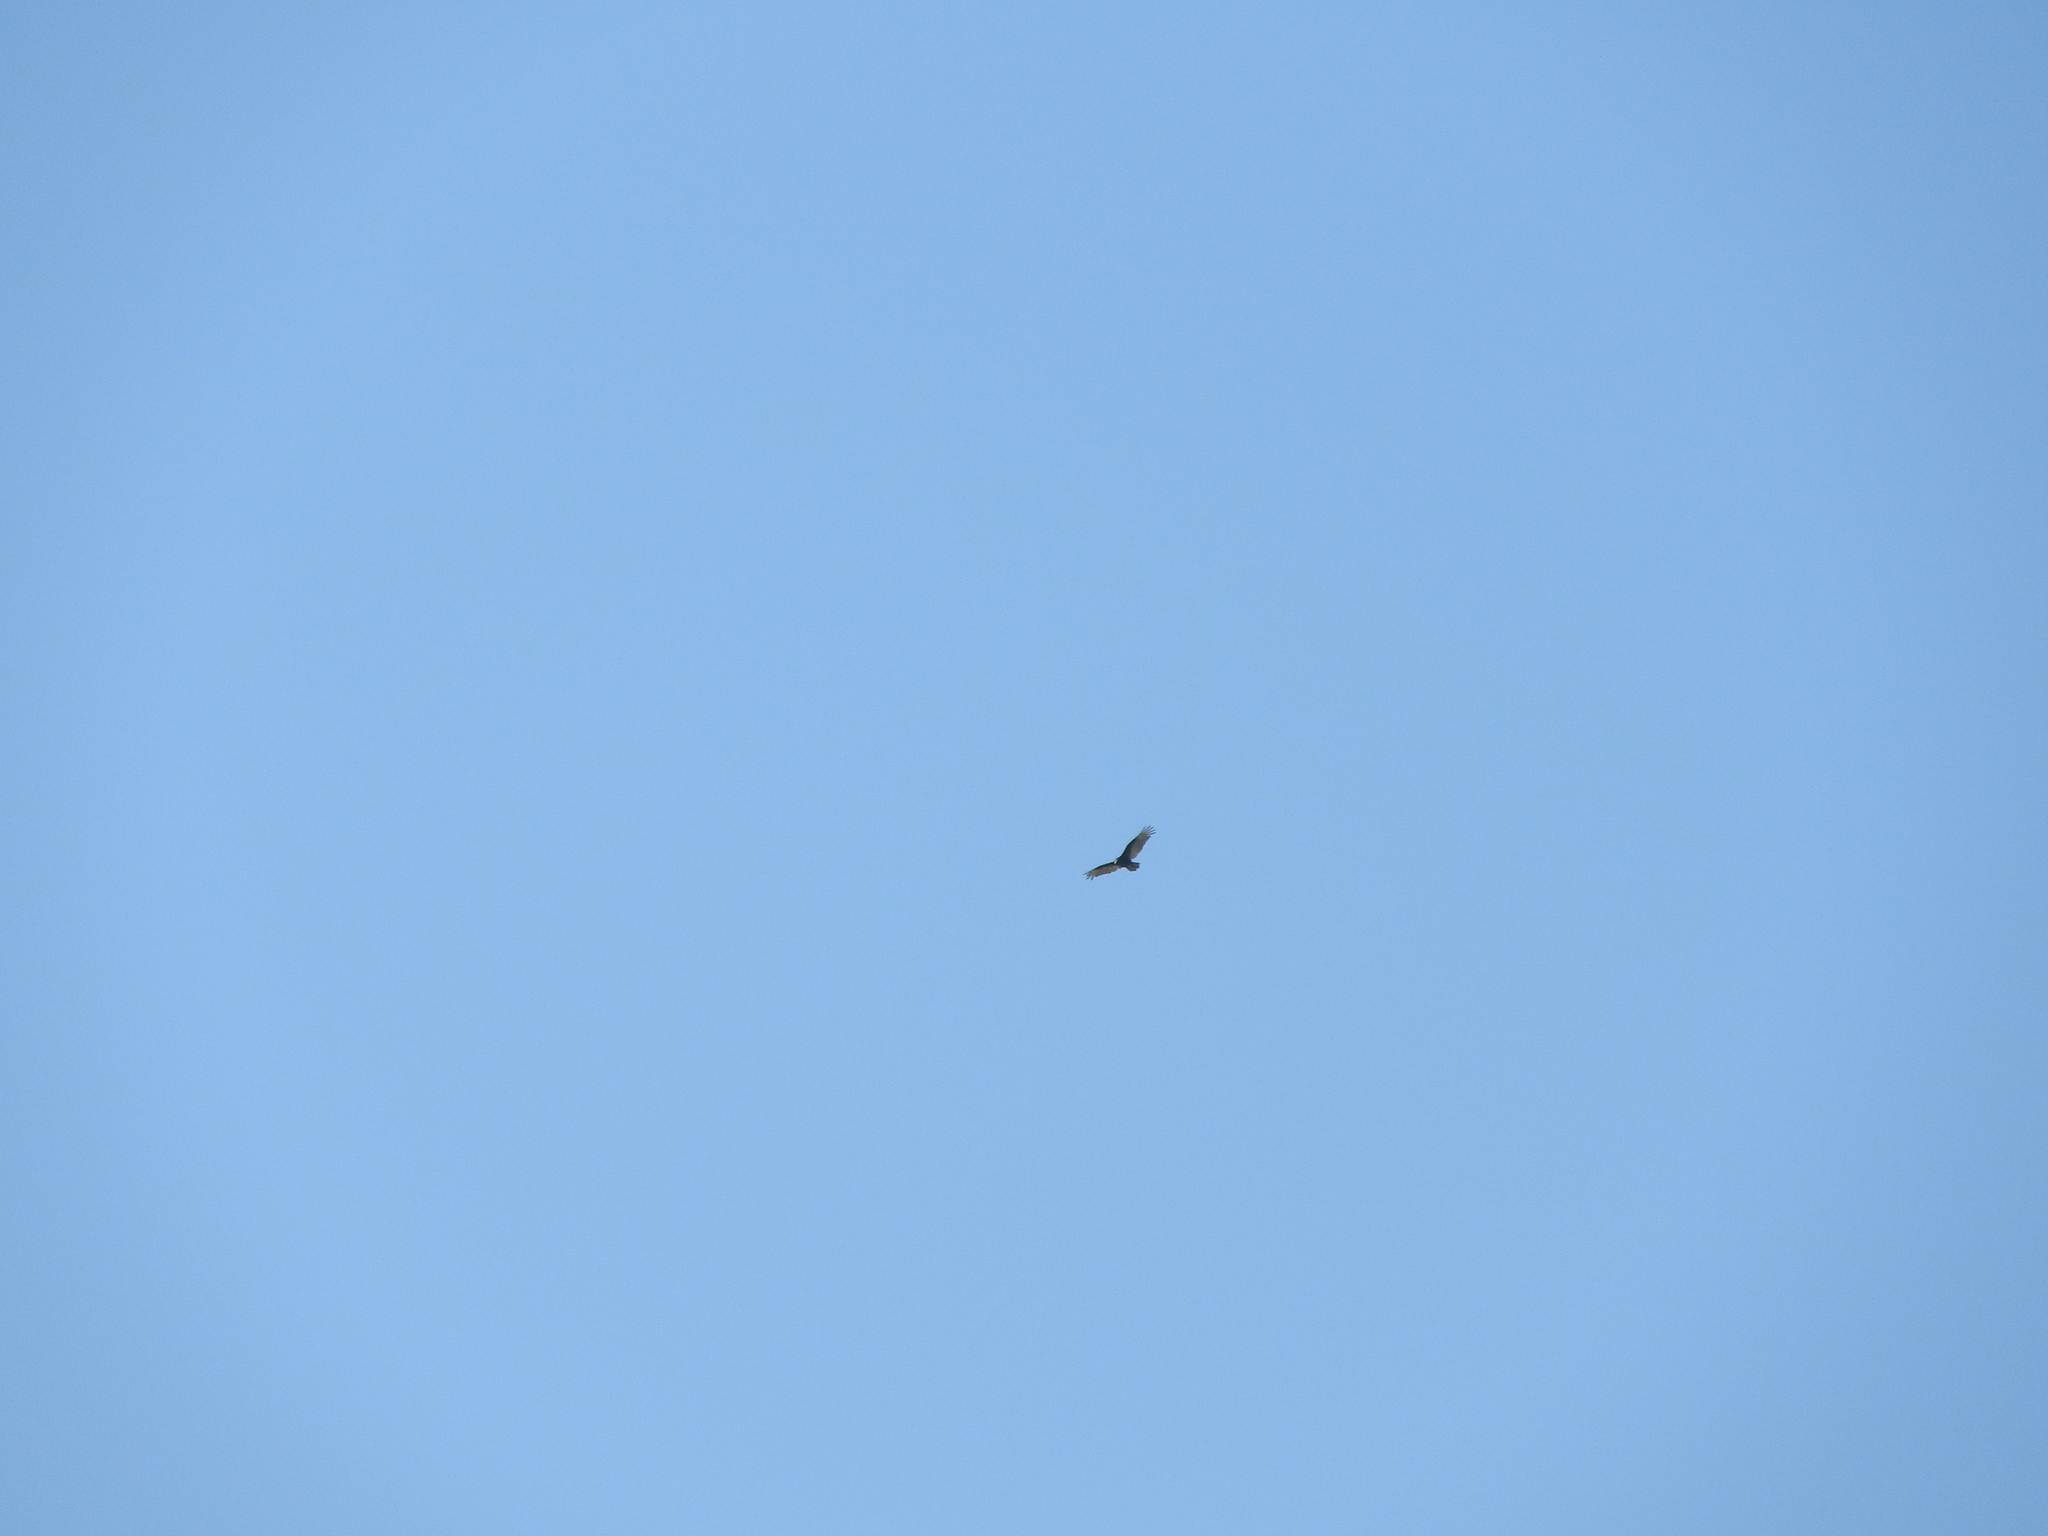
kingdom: Animalia
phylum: Chordata
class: Aves
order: Accipitriformes
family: Cathartidae
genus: Cathartes
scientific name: Cathartes aura
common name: Turkey vulture
